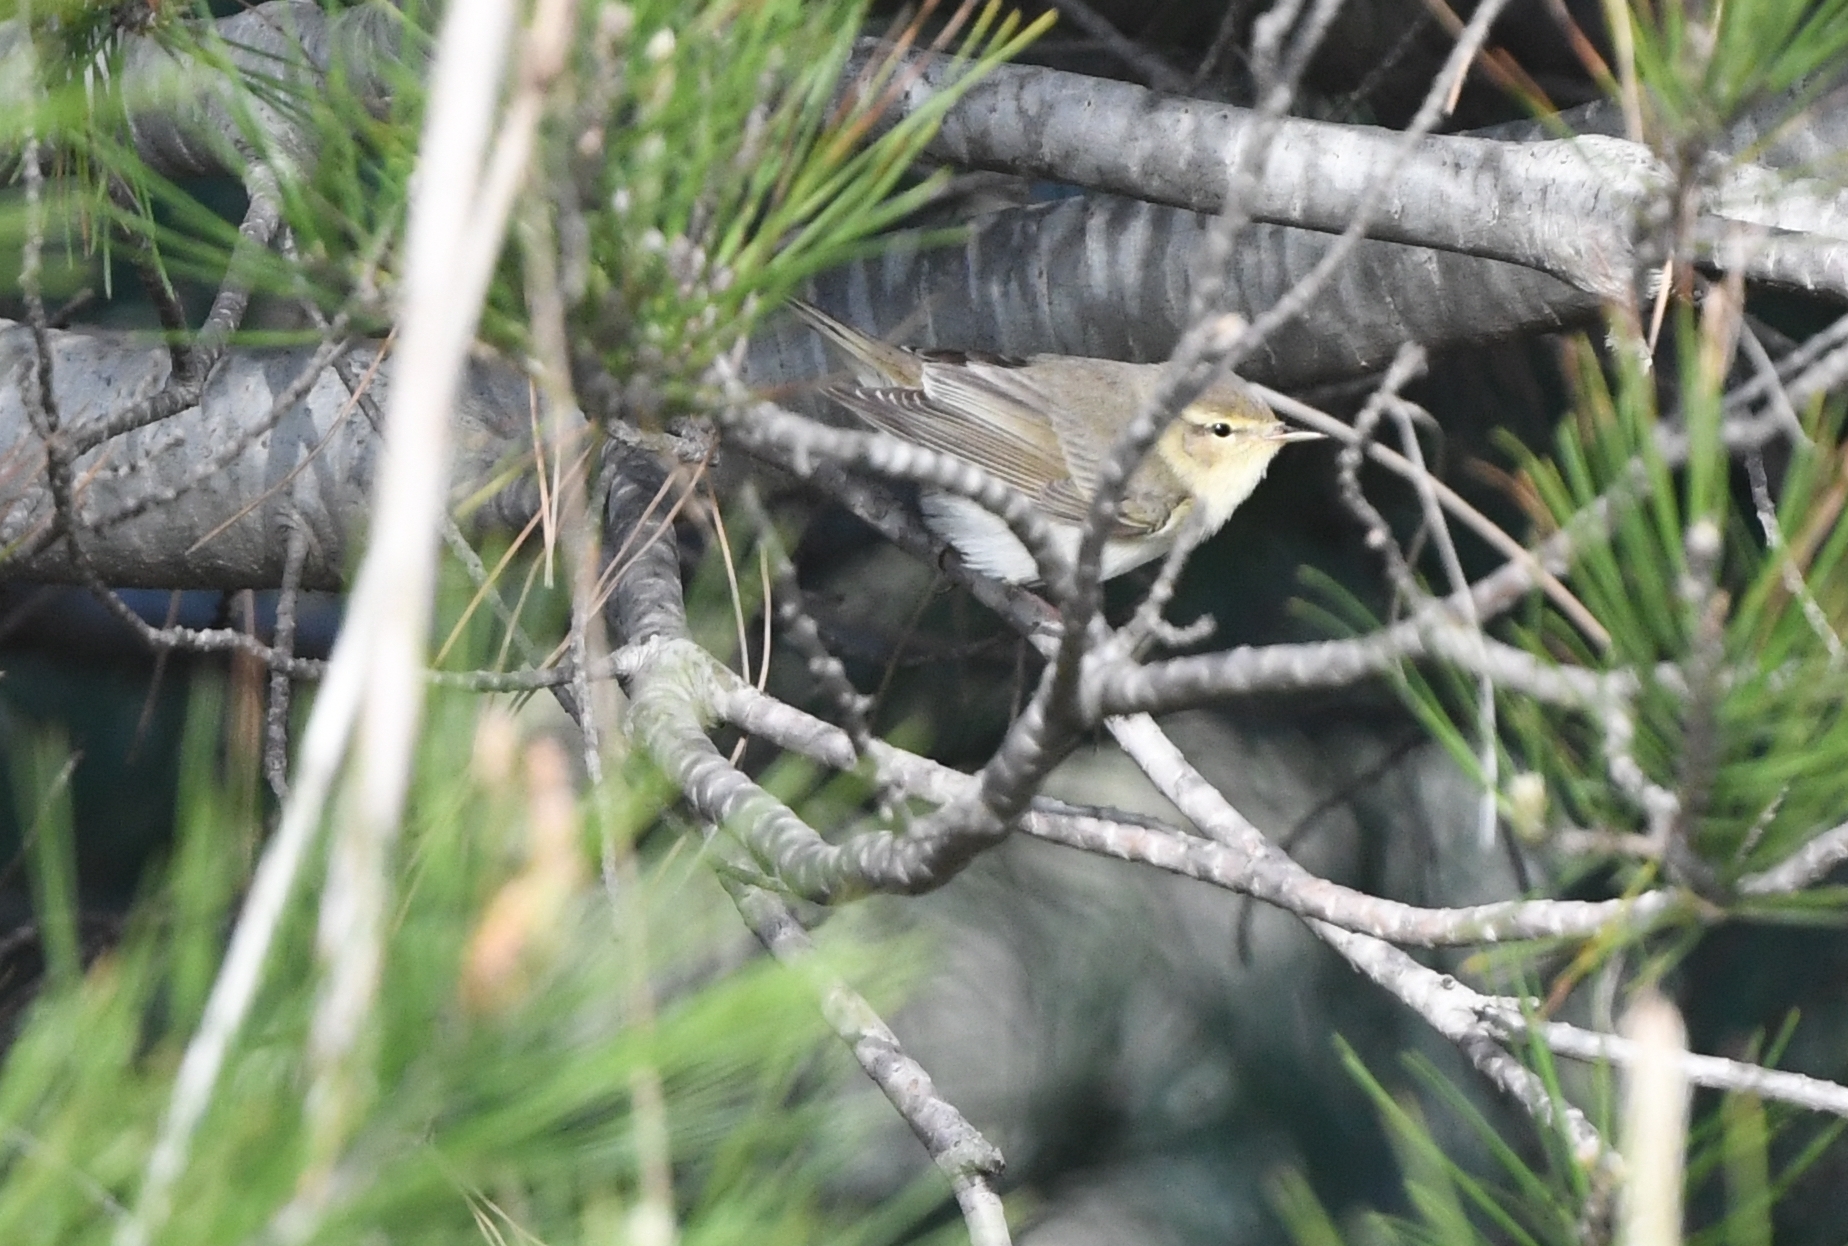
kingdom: Animalia
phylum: Chordata
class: Aves
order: Passeriformes
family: Phylloscopidae
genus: Phylloscopus
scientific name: Phylloscopus trochilus
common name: Willow warbler
